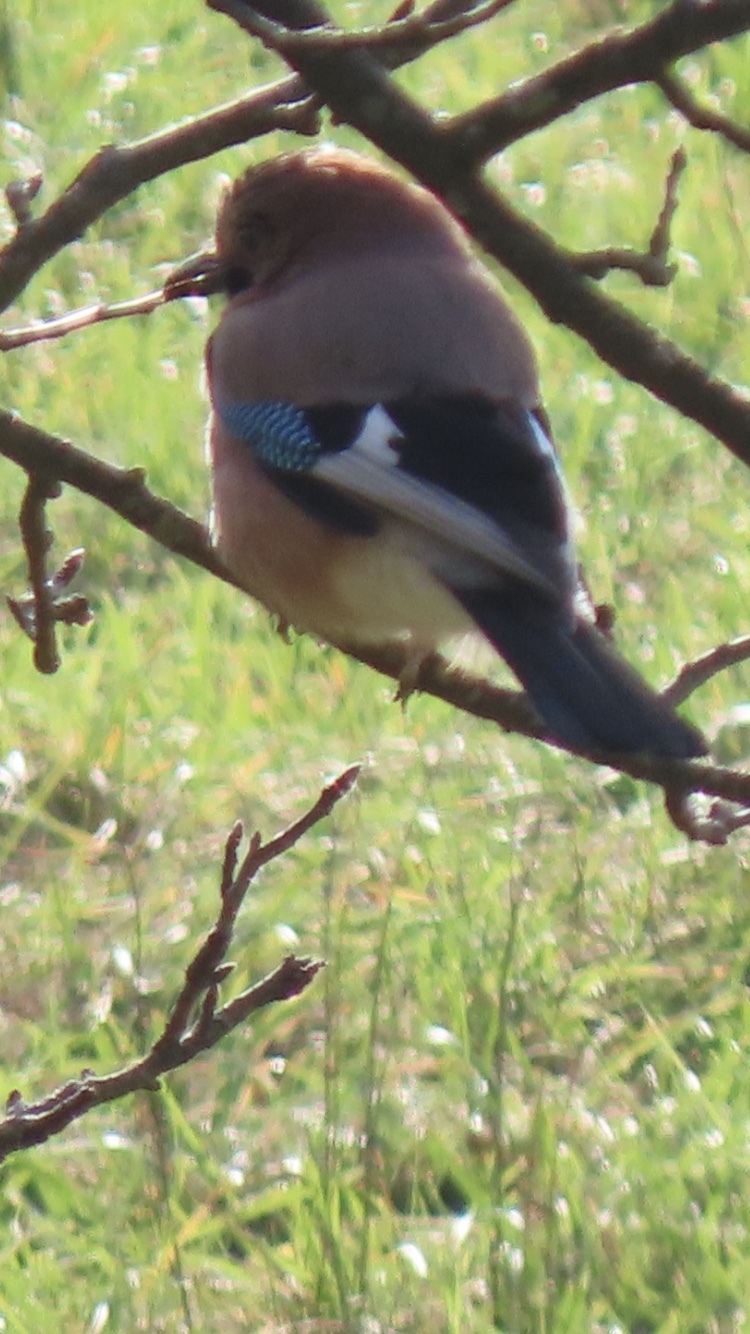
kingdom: Animalia
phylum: Chordata
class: Aves
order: Passeriformes
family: Corvidae
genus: Garrulus
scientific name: Garrulus glandarius
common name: Eurasian jay
